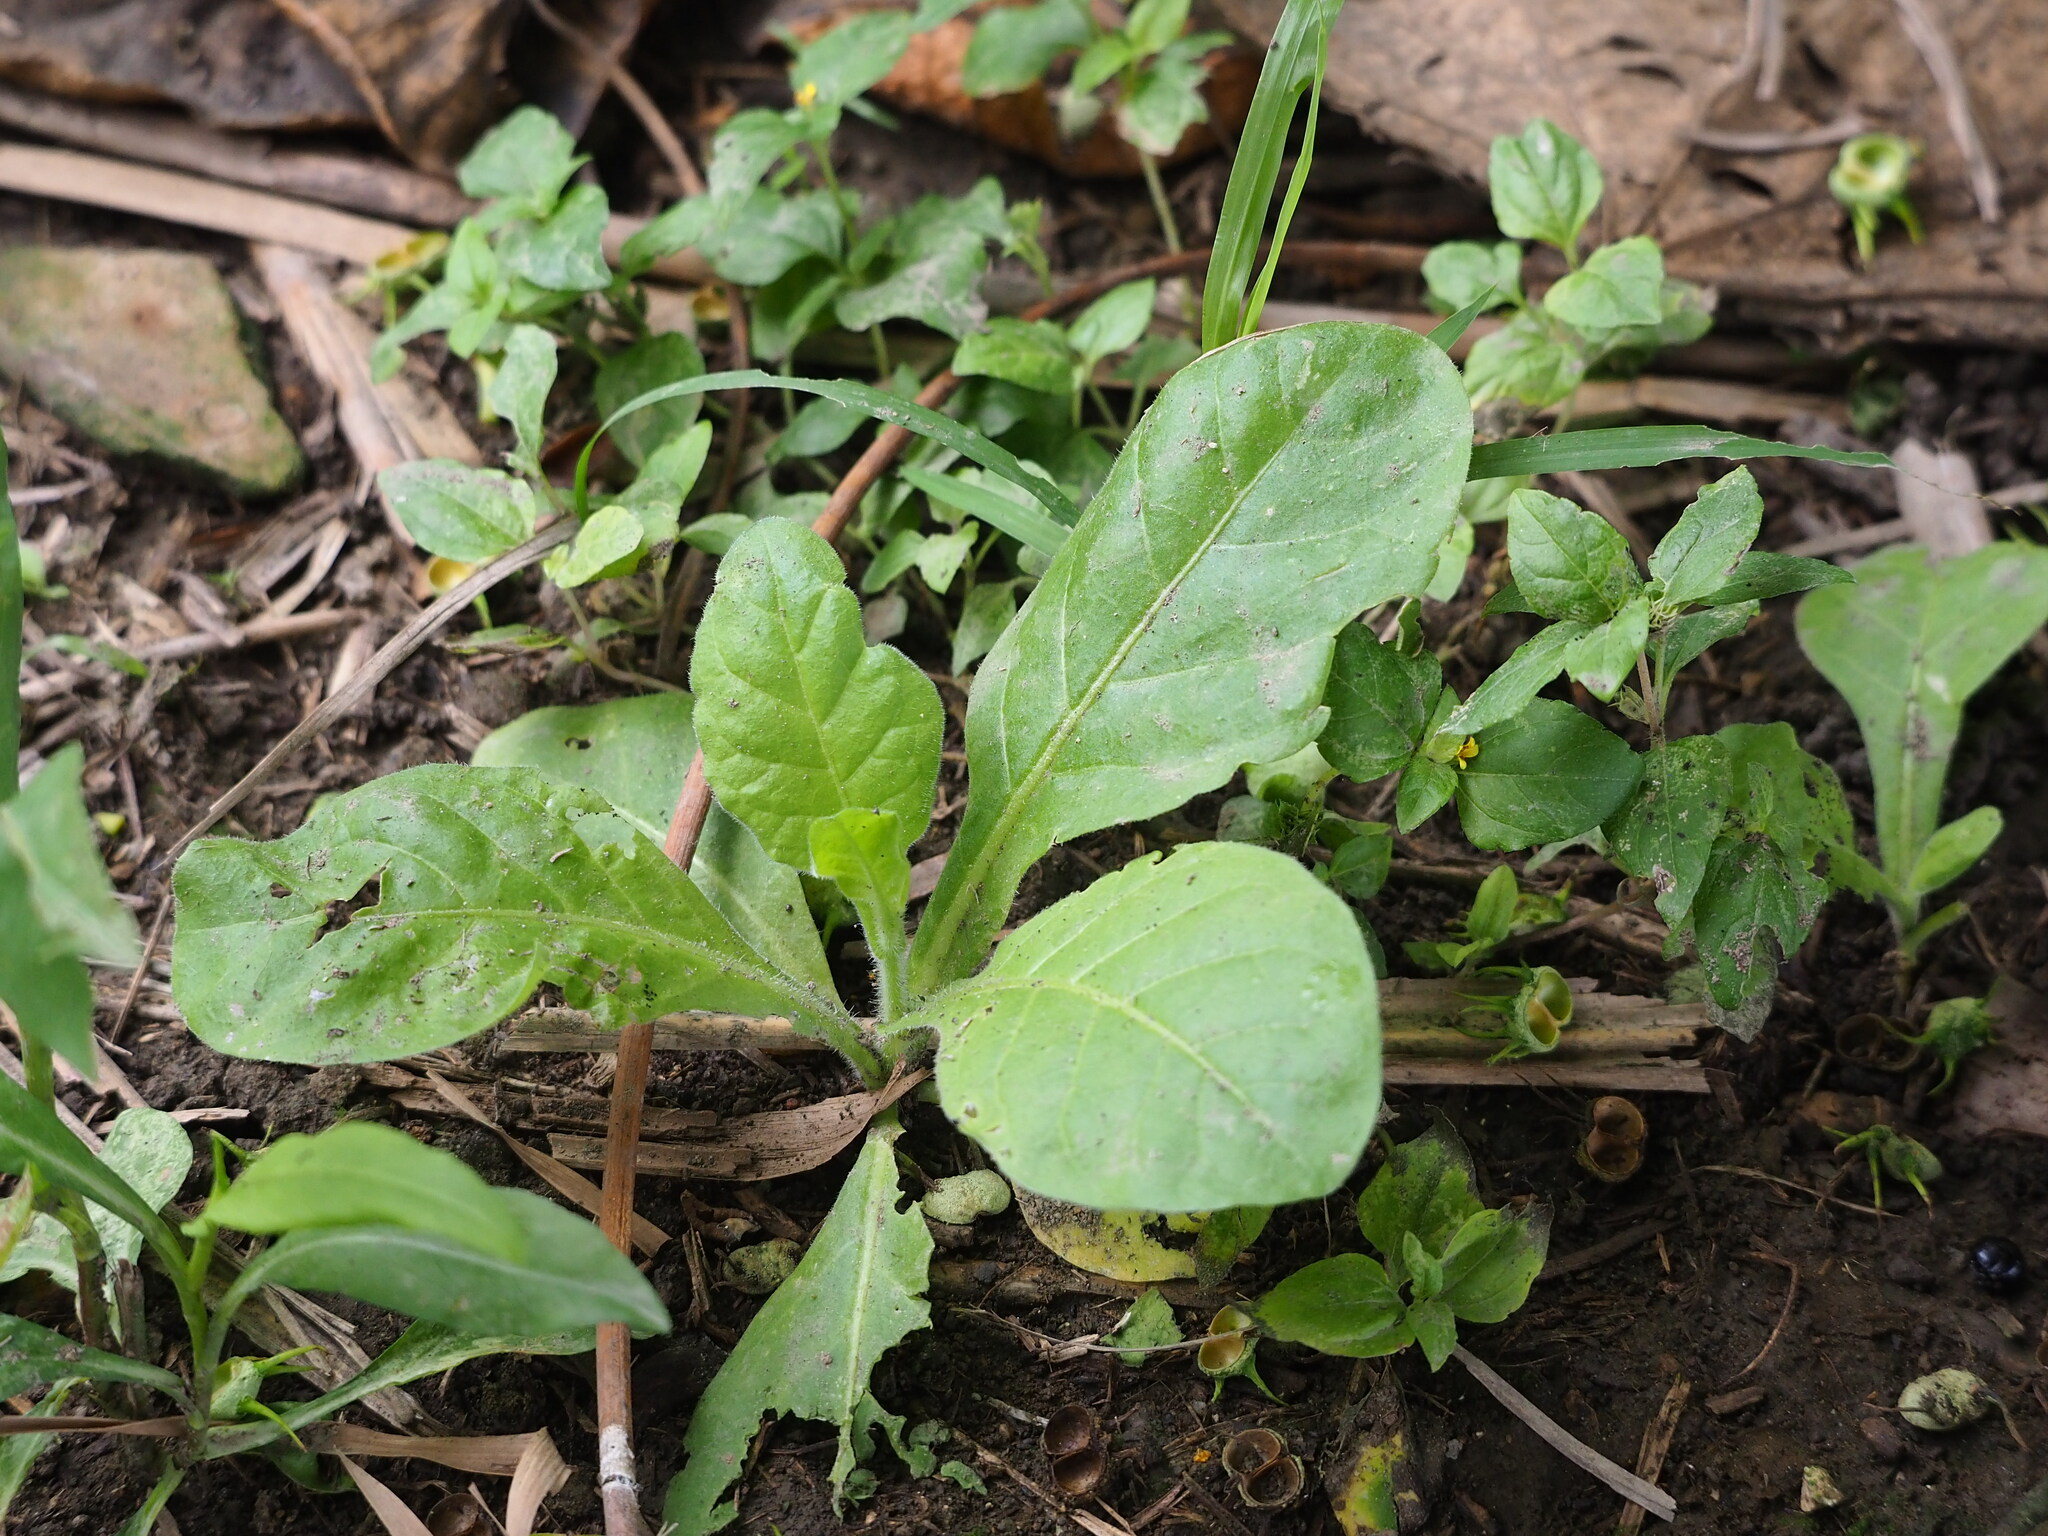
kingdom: Plantae
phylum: Tracheophyta
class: Magnoliopsida
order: Solanales
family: Solanaceae
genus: Nicotiana
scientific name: Nicotiana plumbaginifolia
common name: Tex-mex tobacco
